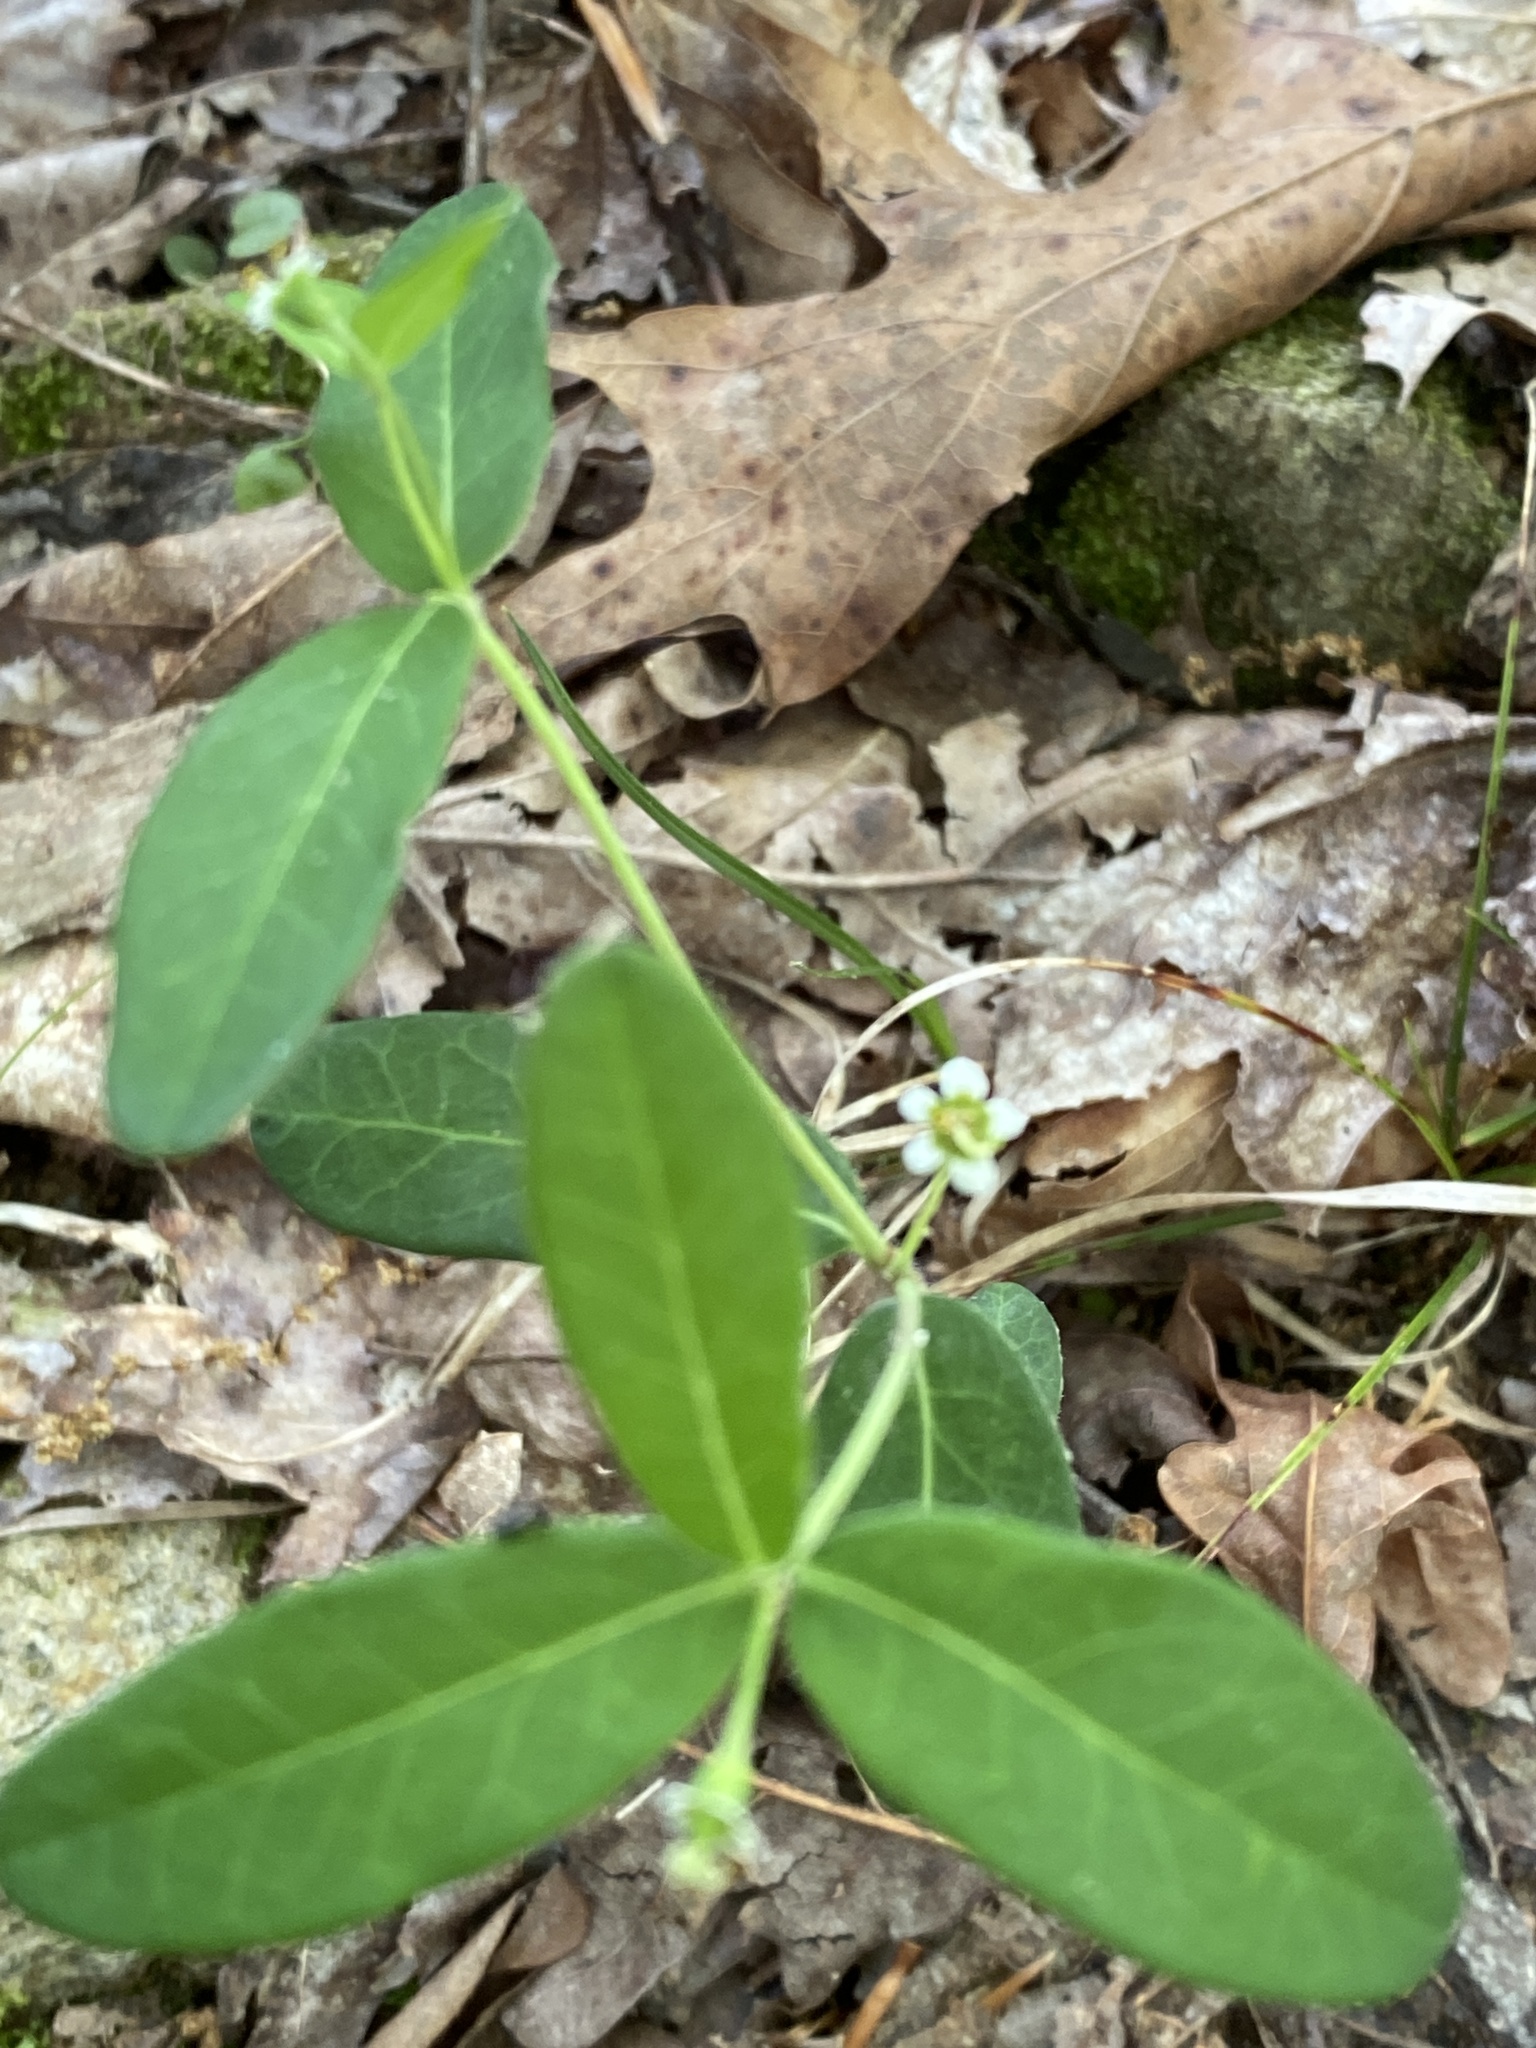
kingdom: Plantae
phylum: Tracheophyta
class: Magnoliopsida
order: Malpighiales
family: Euphorbiaceae
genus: Euphorbia
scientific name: Euphorbia corollata
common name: Flowering spurge
